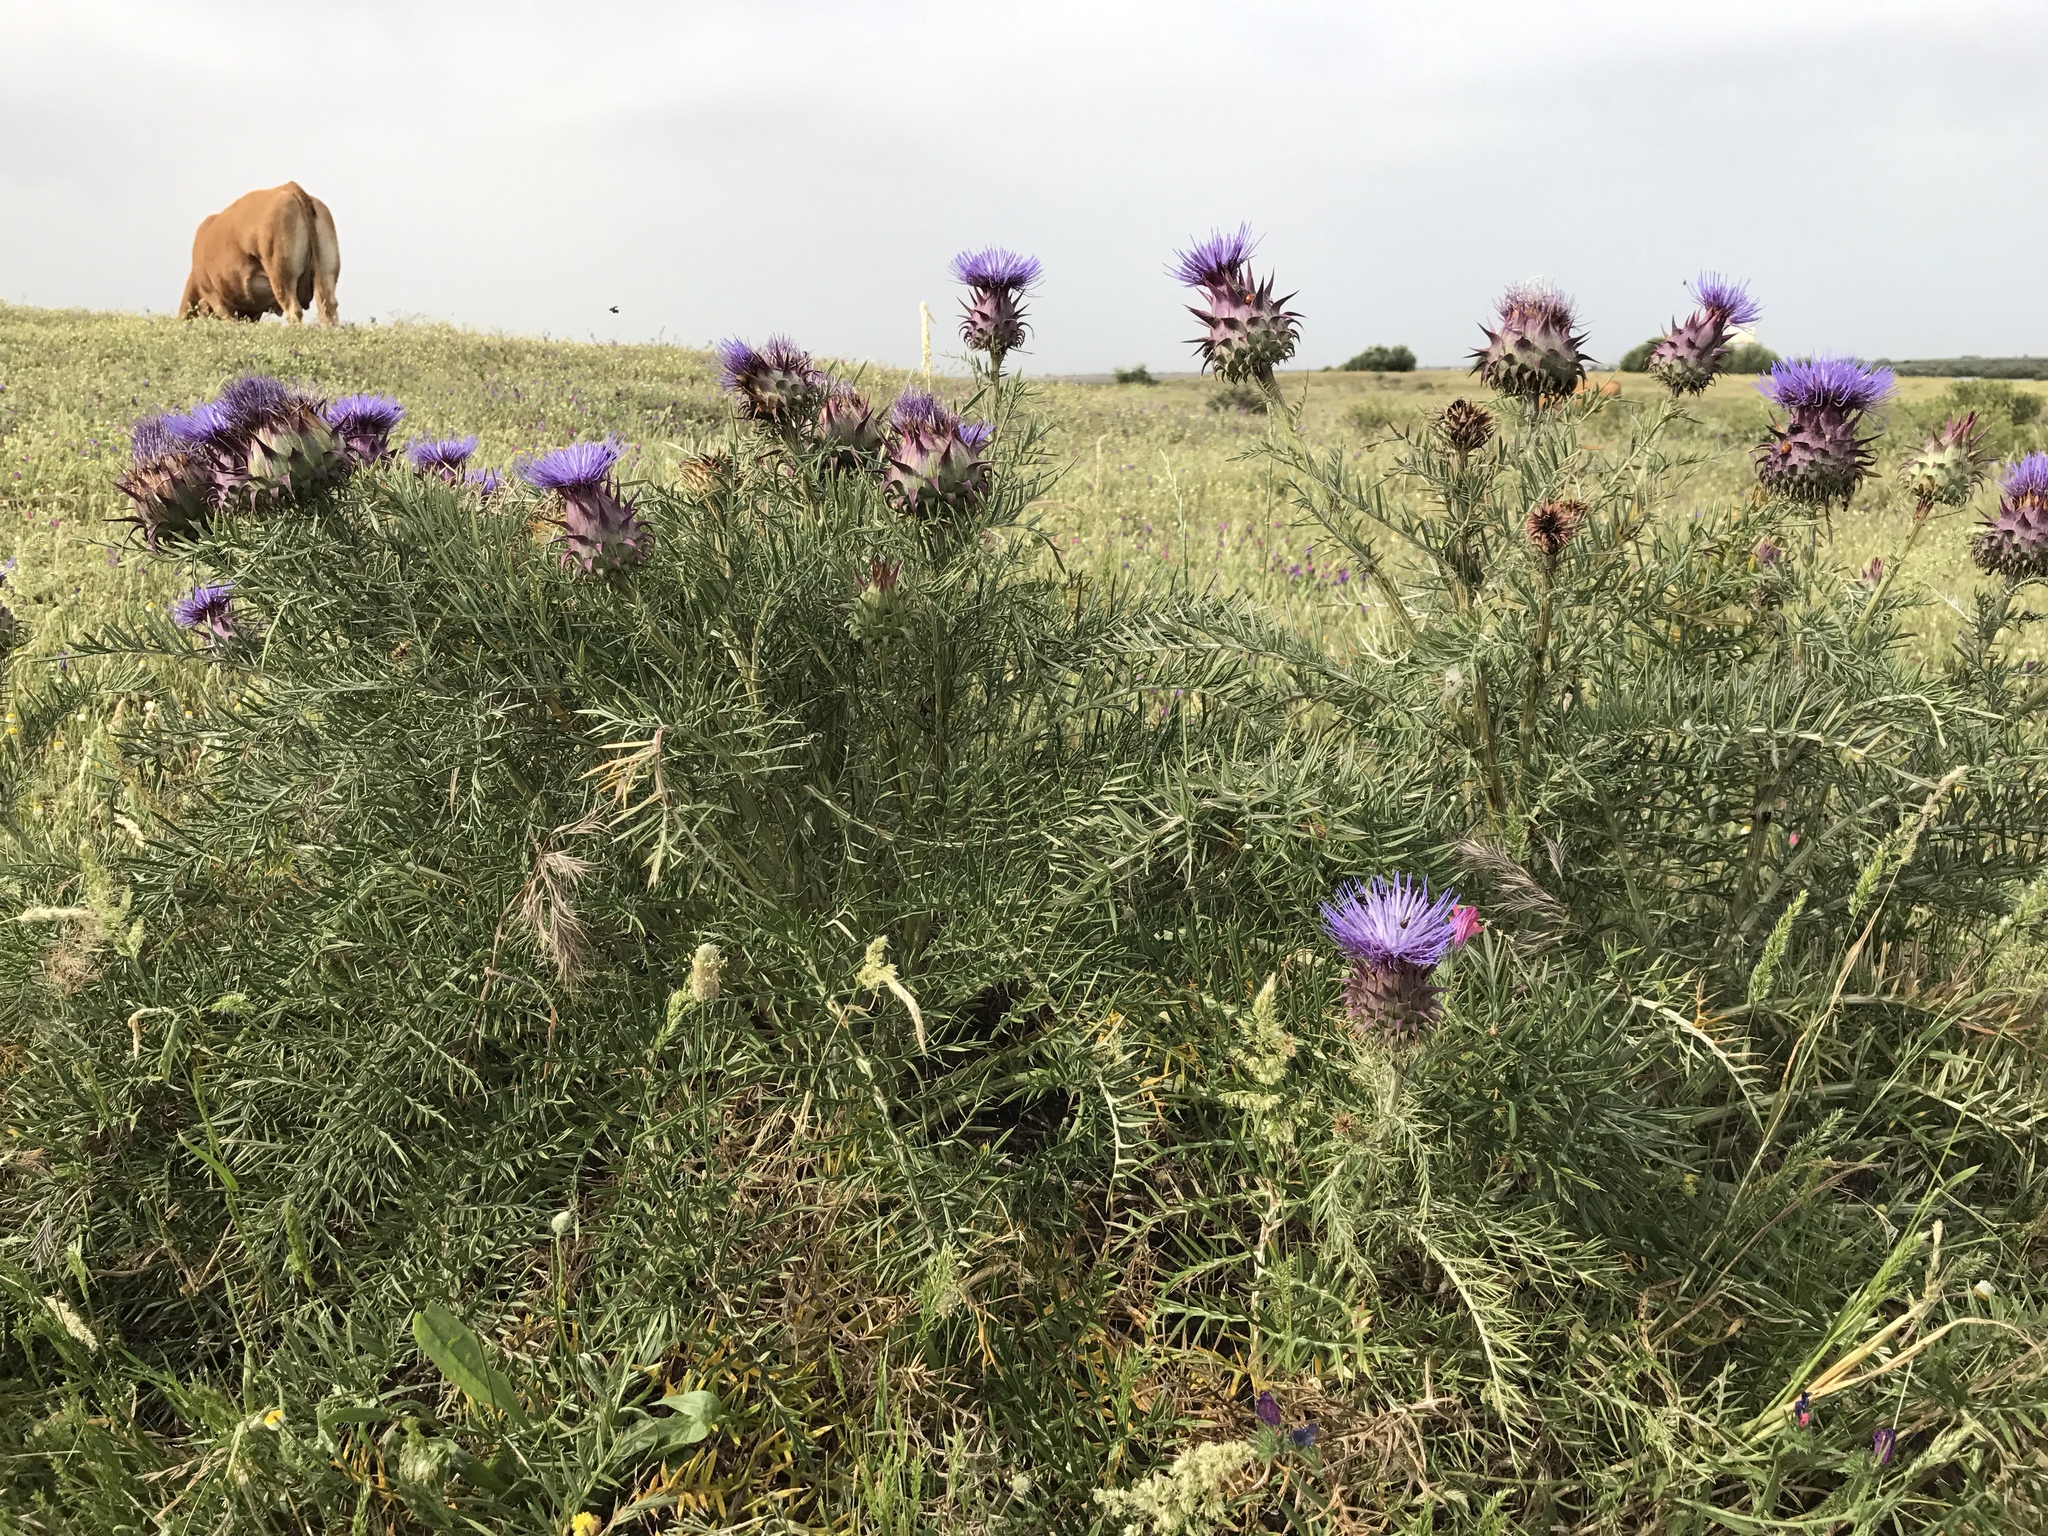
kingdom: Plantae
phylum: Tracheophyta
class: Magnoliopsida
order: Asterales
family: Asteraceae
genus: Cynara
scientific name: Cynara humilis
